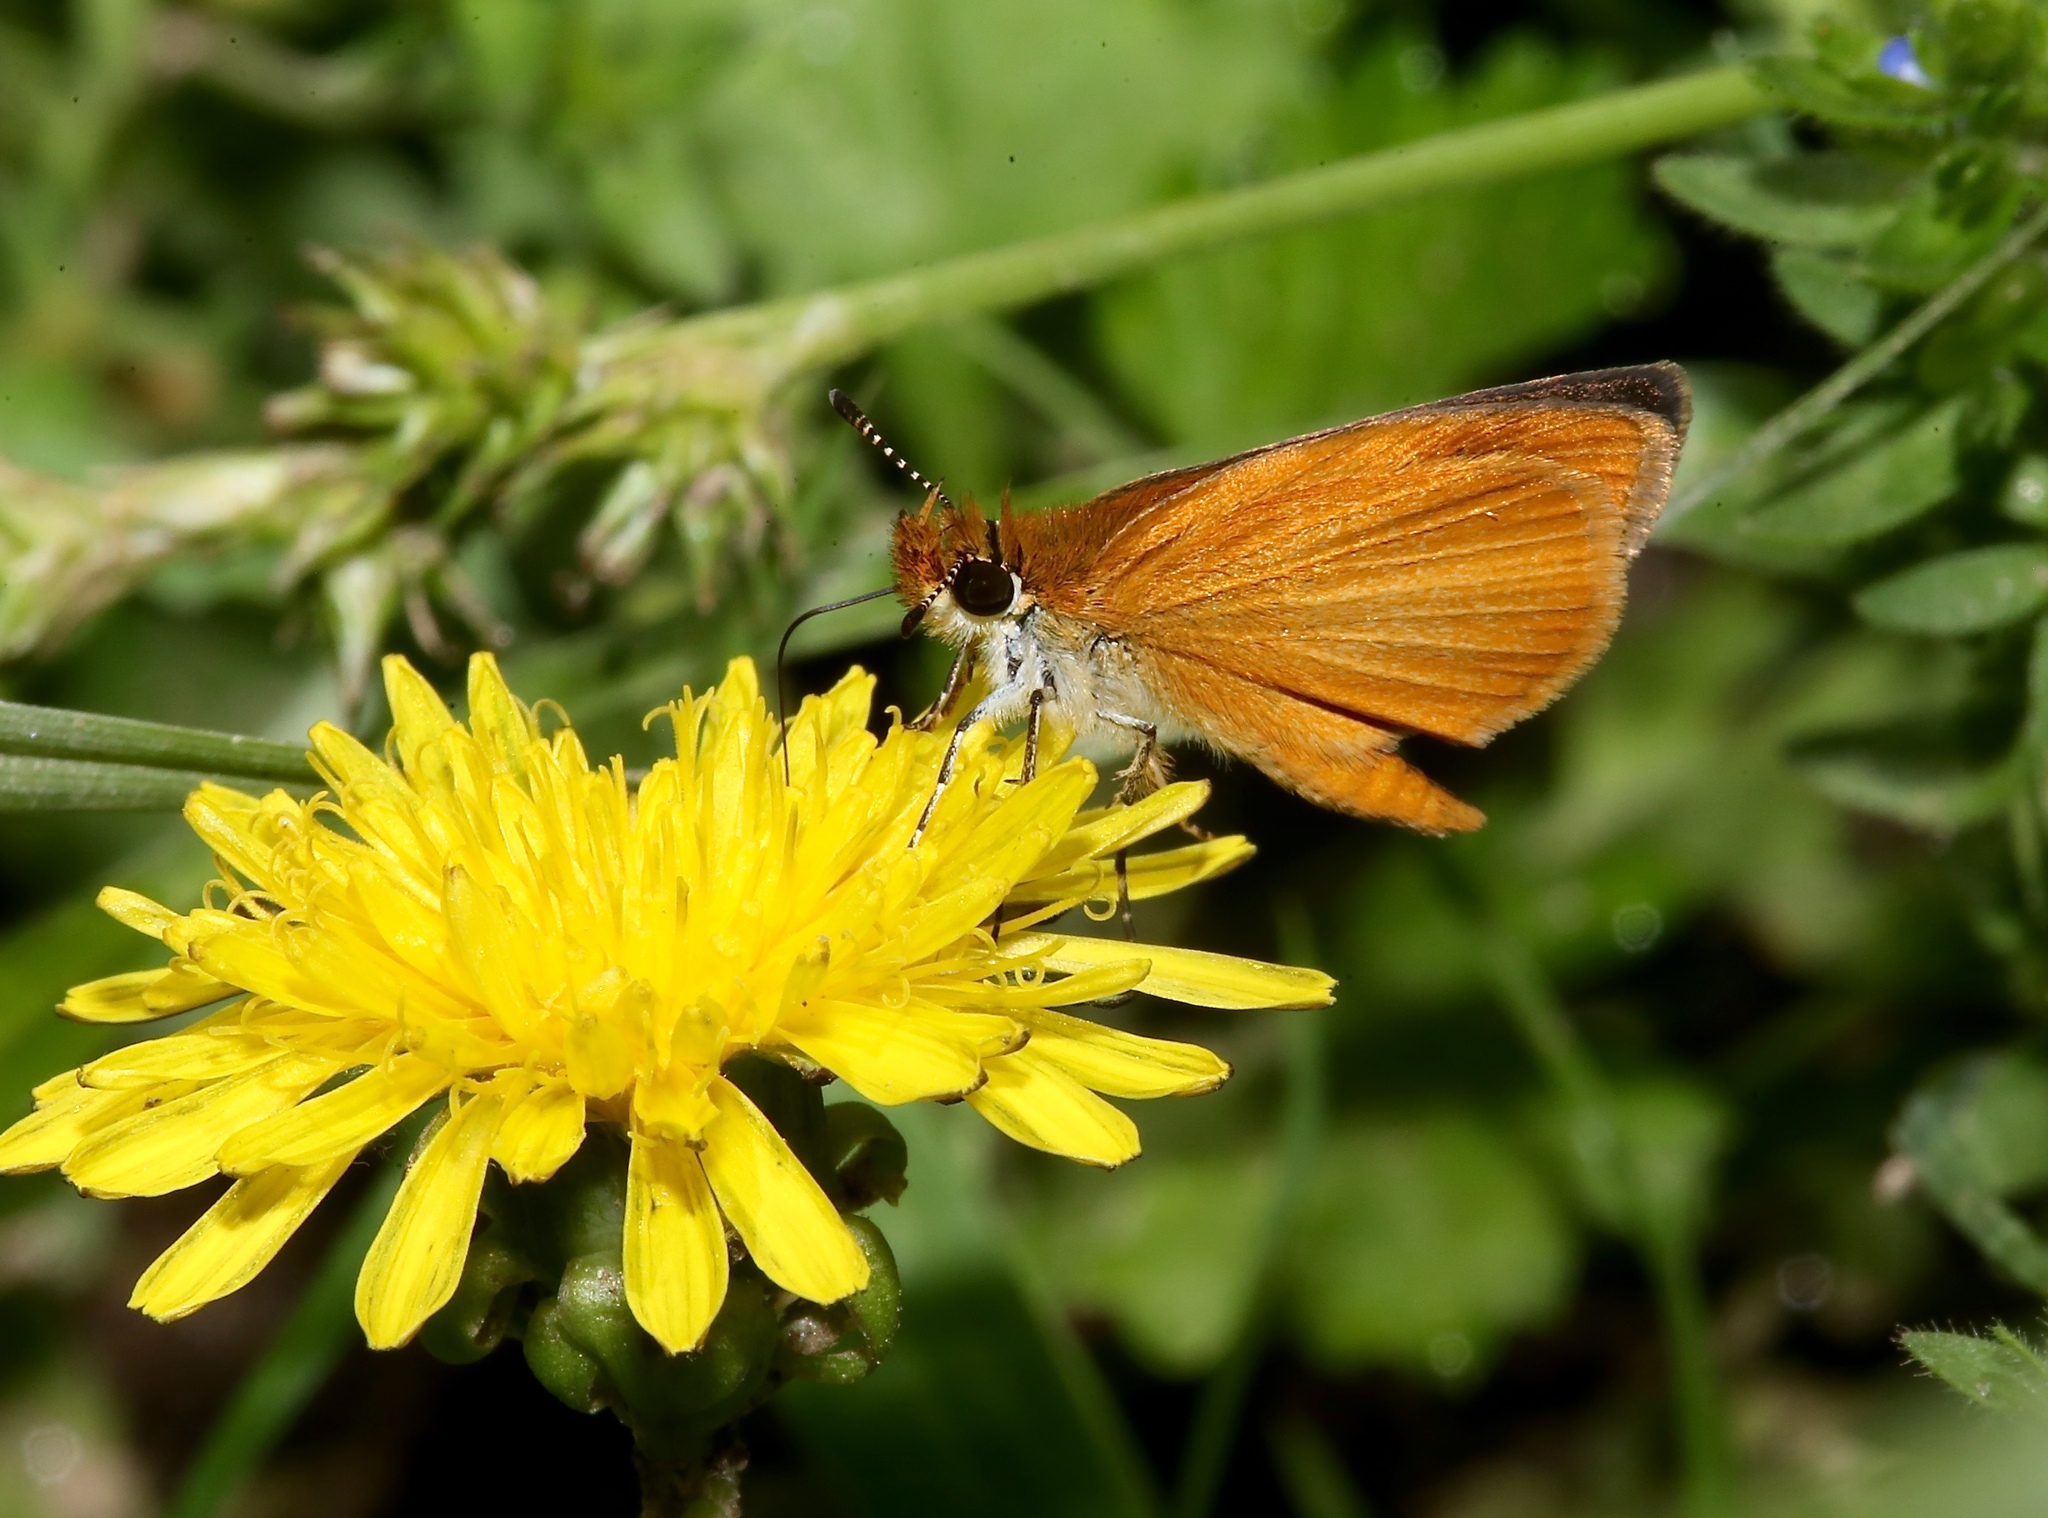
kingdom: Animalia
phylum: Arthropoda
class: Insecta
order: Lepidoptera
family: Hesperiidae
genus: Ancyloxypha
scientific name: Ancyloxypha numitor
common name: Least skipper
